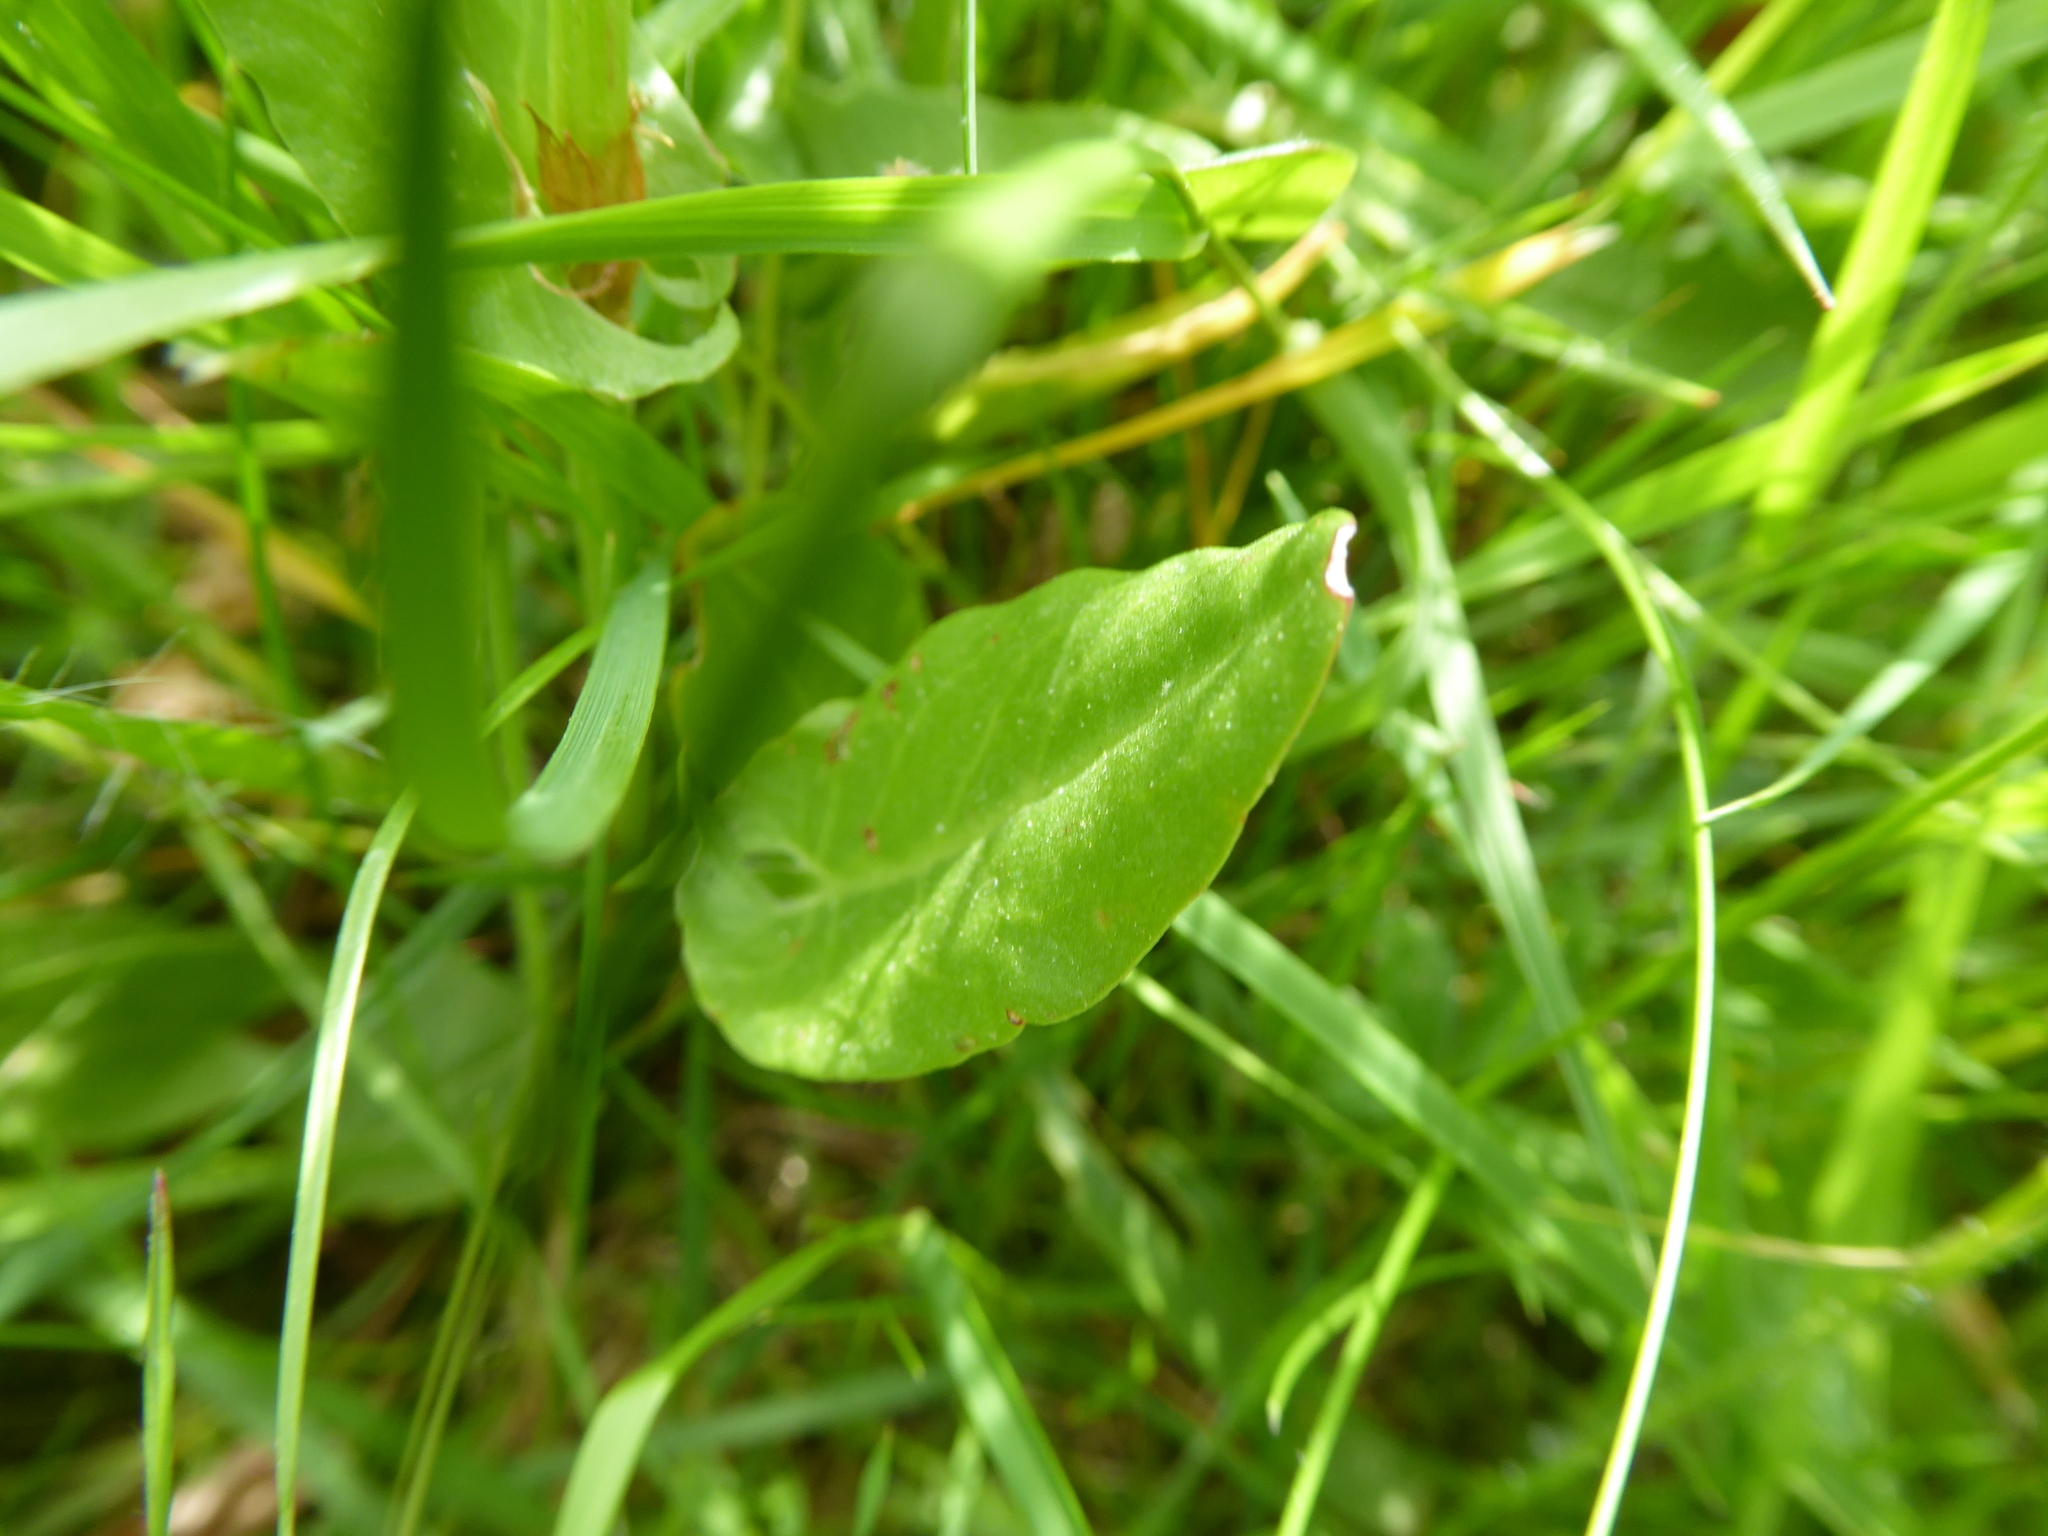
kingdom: Plantae
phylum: Tracheophyta
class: Magnoliopsida
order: Caryophyllales
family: Polygonaceae
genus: Rumex
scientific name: Rumex acetosa
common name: Garden sorrel
